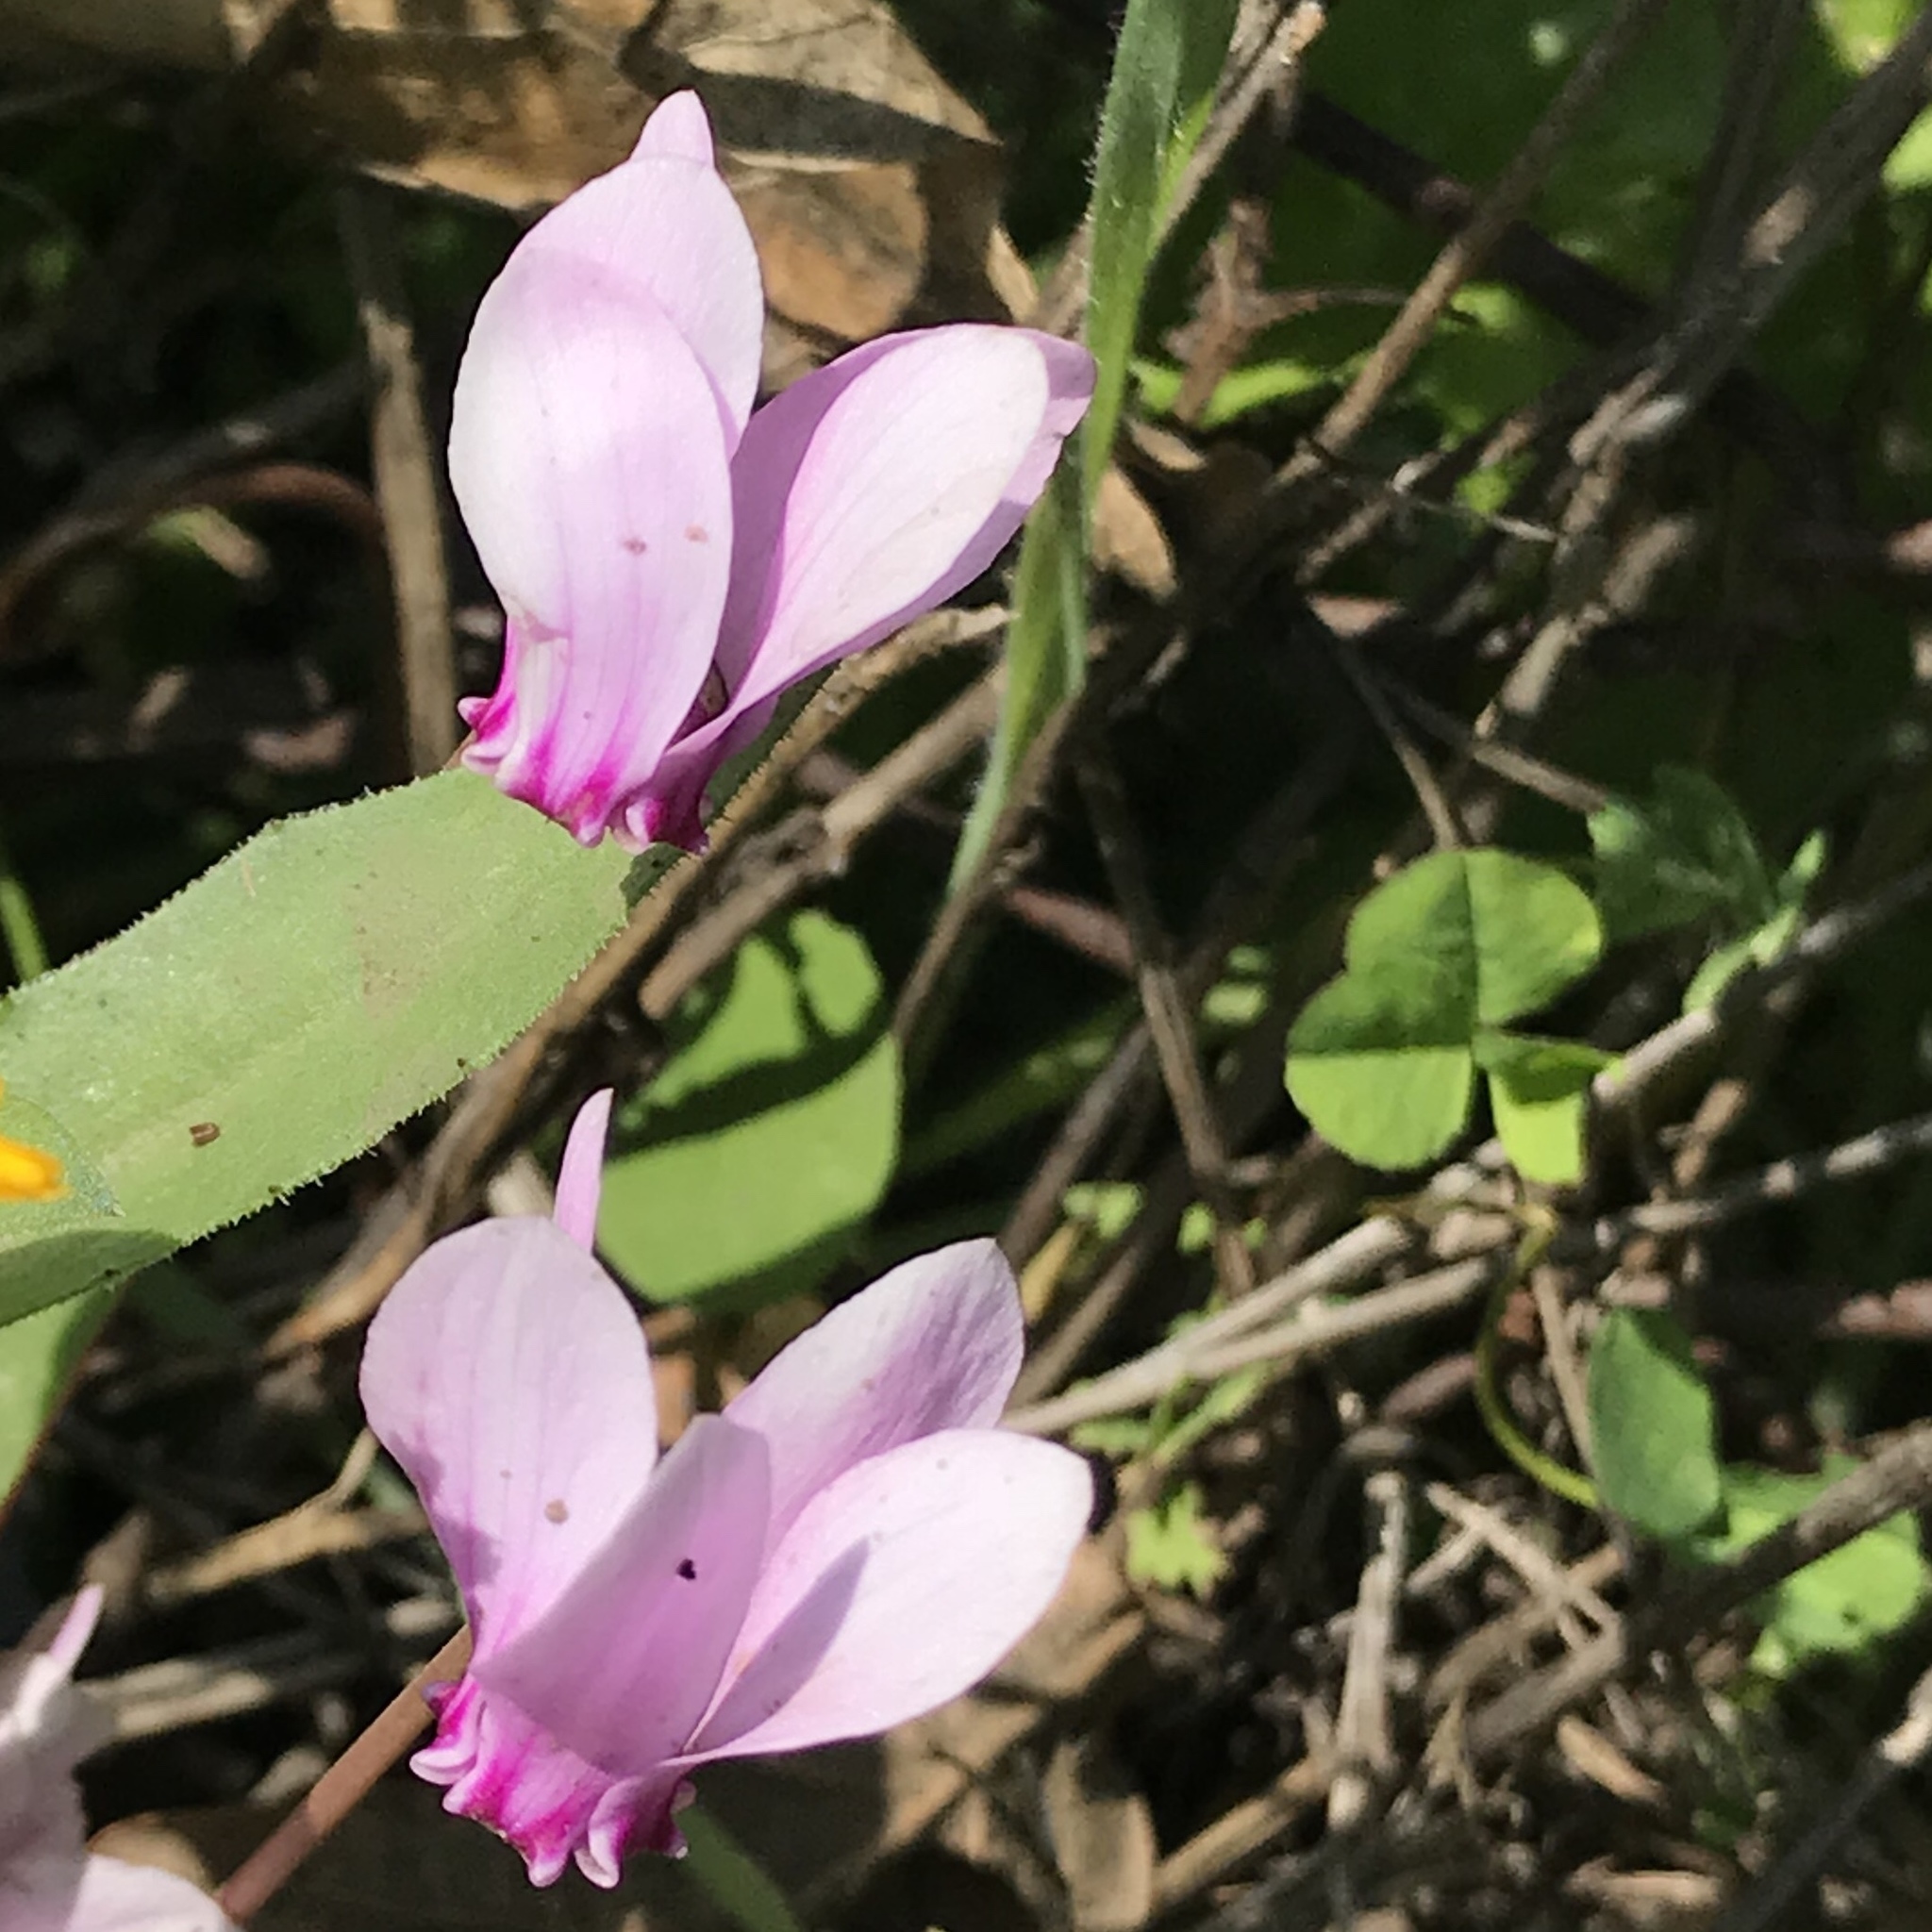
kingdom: Plantae
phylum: Tracheophyta
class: Magnoliopsida
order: Ericales
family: Primulaceae
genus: Cyclamen
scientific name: Cyclamen hederifolium
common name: Sowbread
